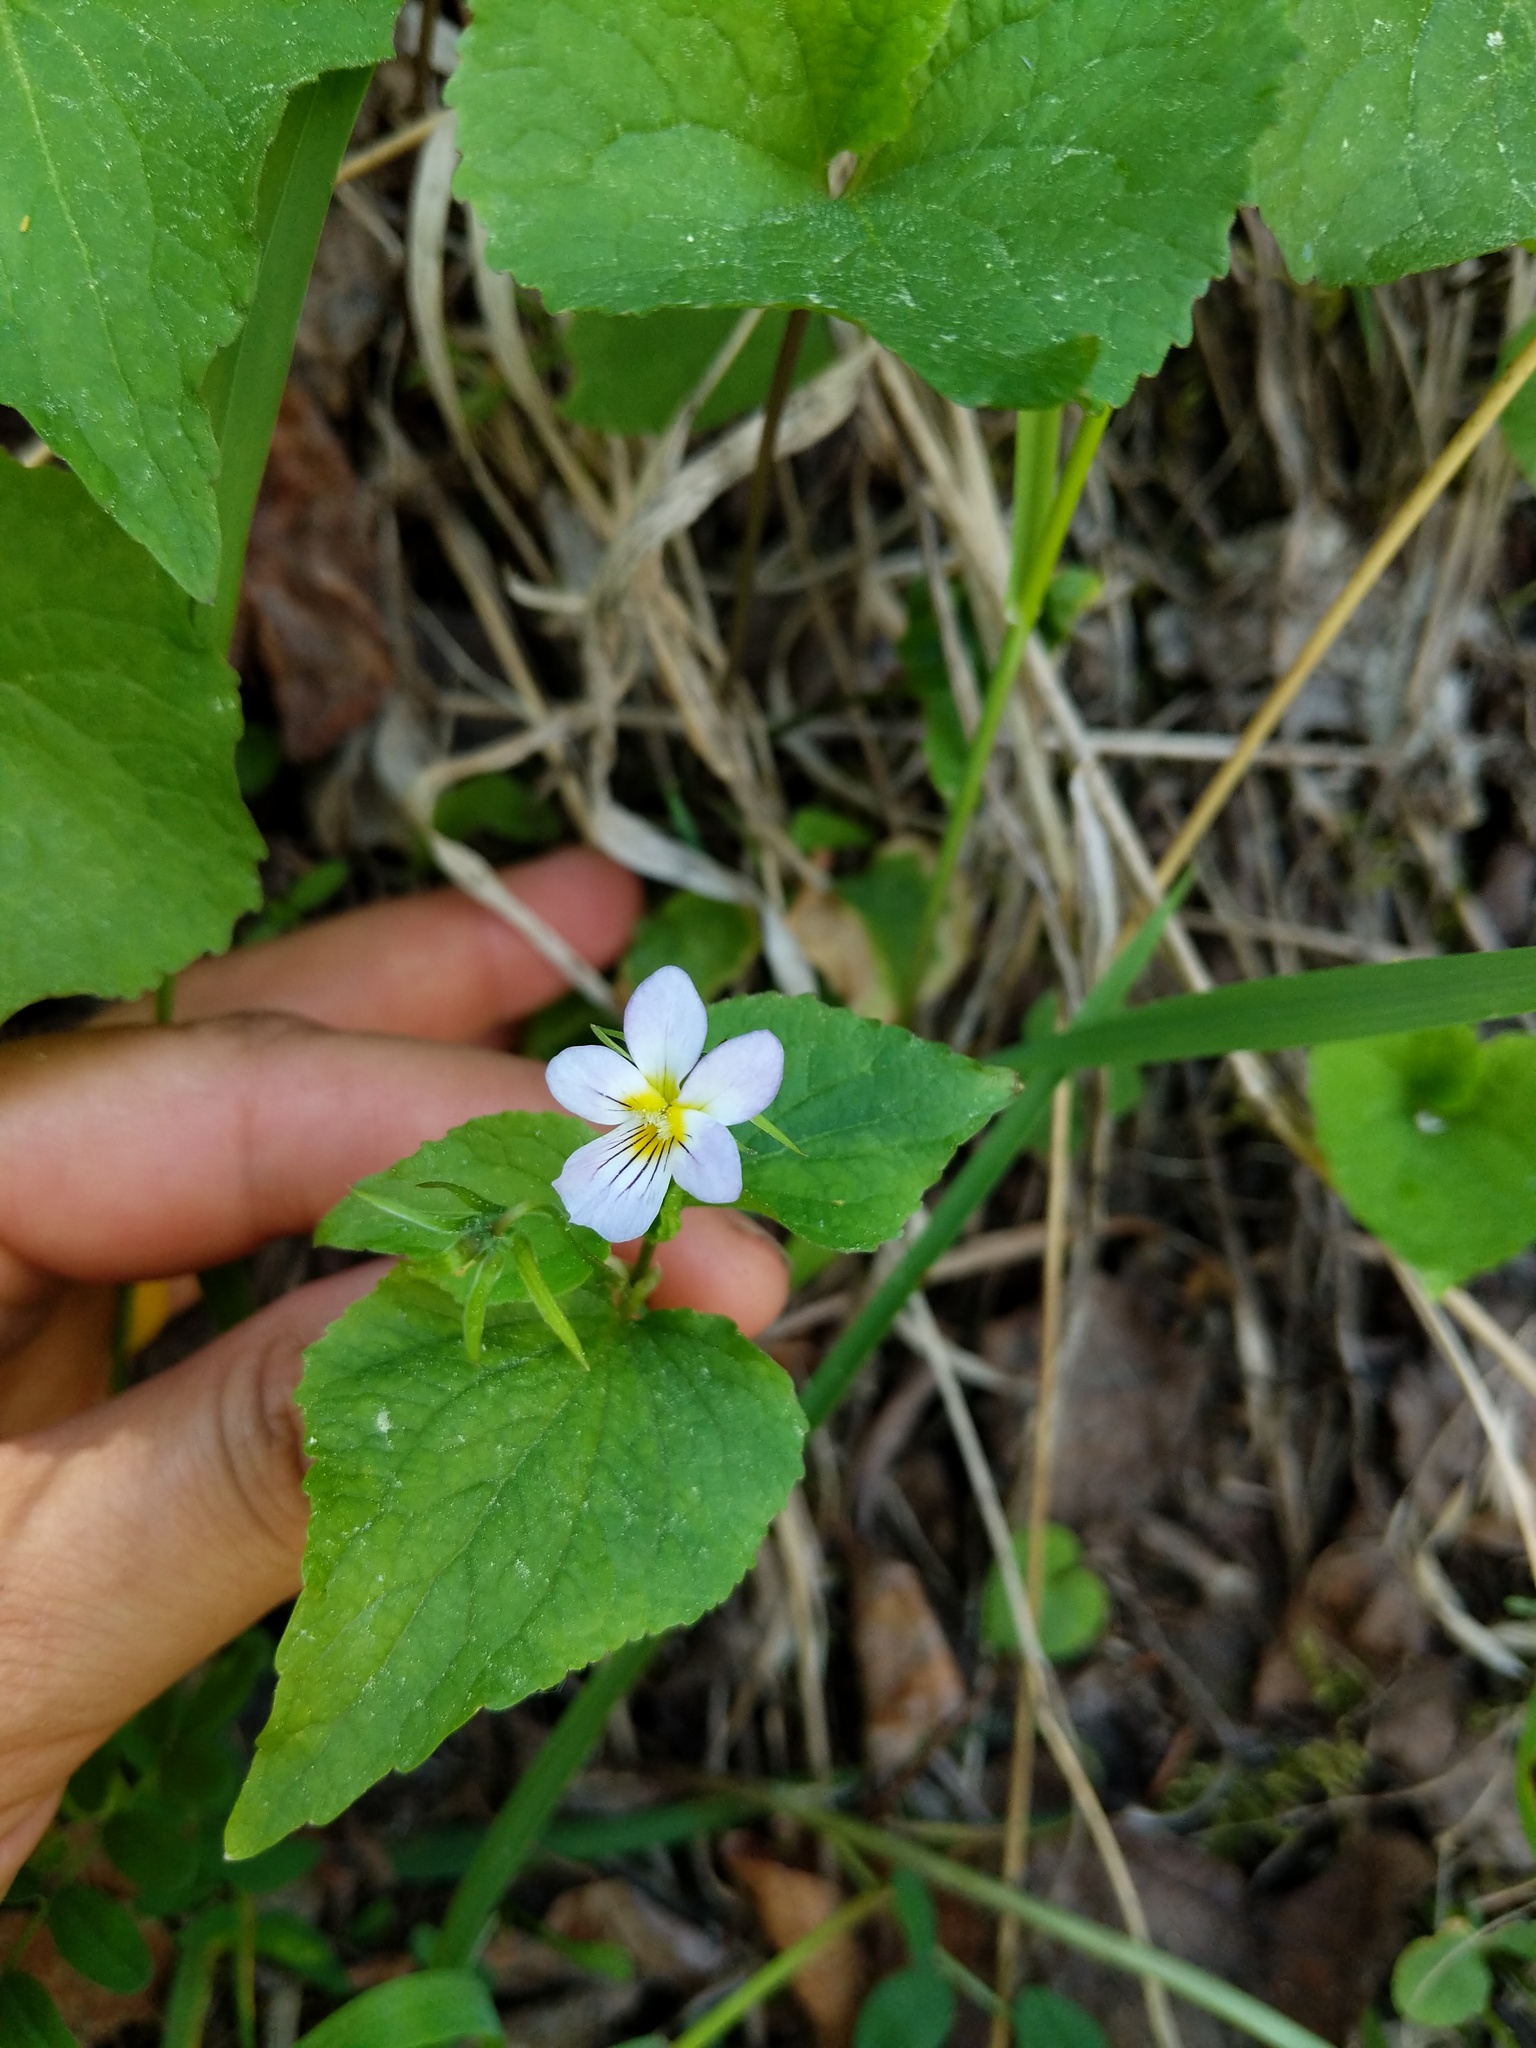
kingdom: Plantae
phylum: Tracheophyta
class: Magnoliopsida
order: Malpighiales
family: Violaceae
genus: Viola
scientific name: Viola canadensis
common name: Canada violet
